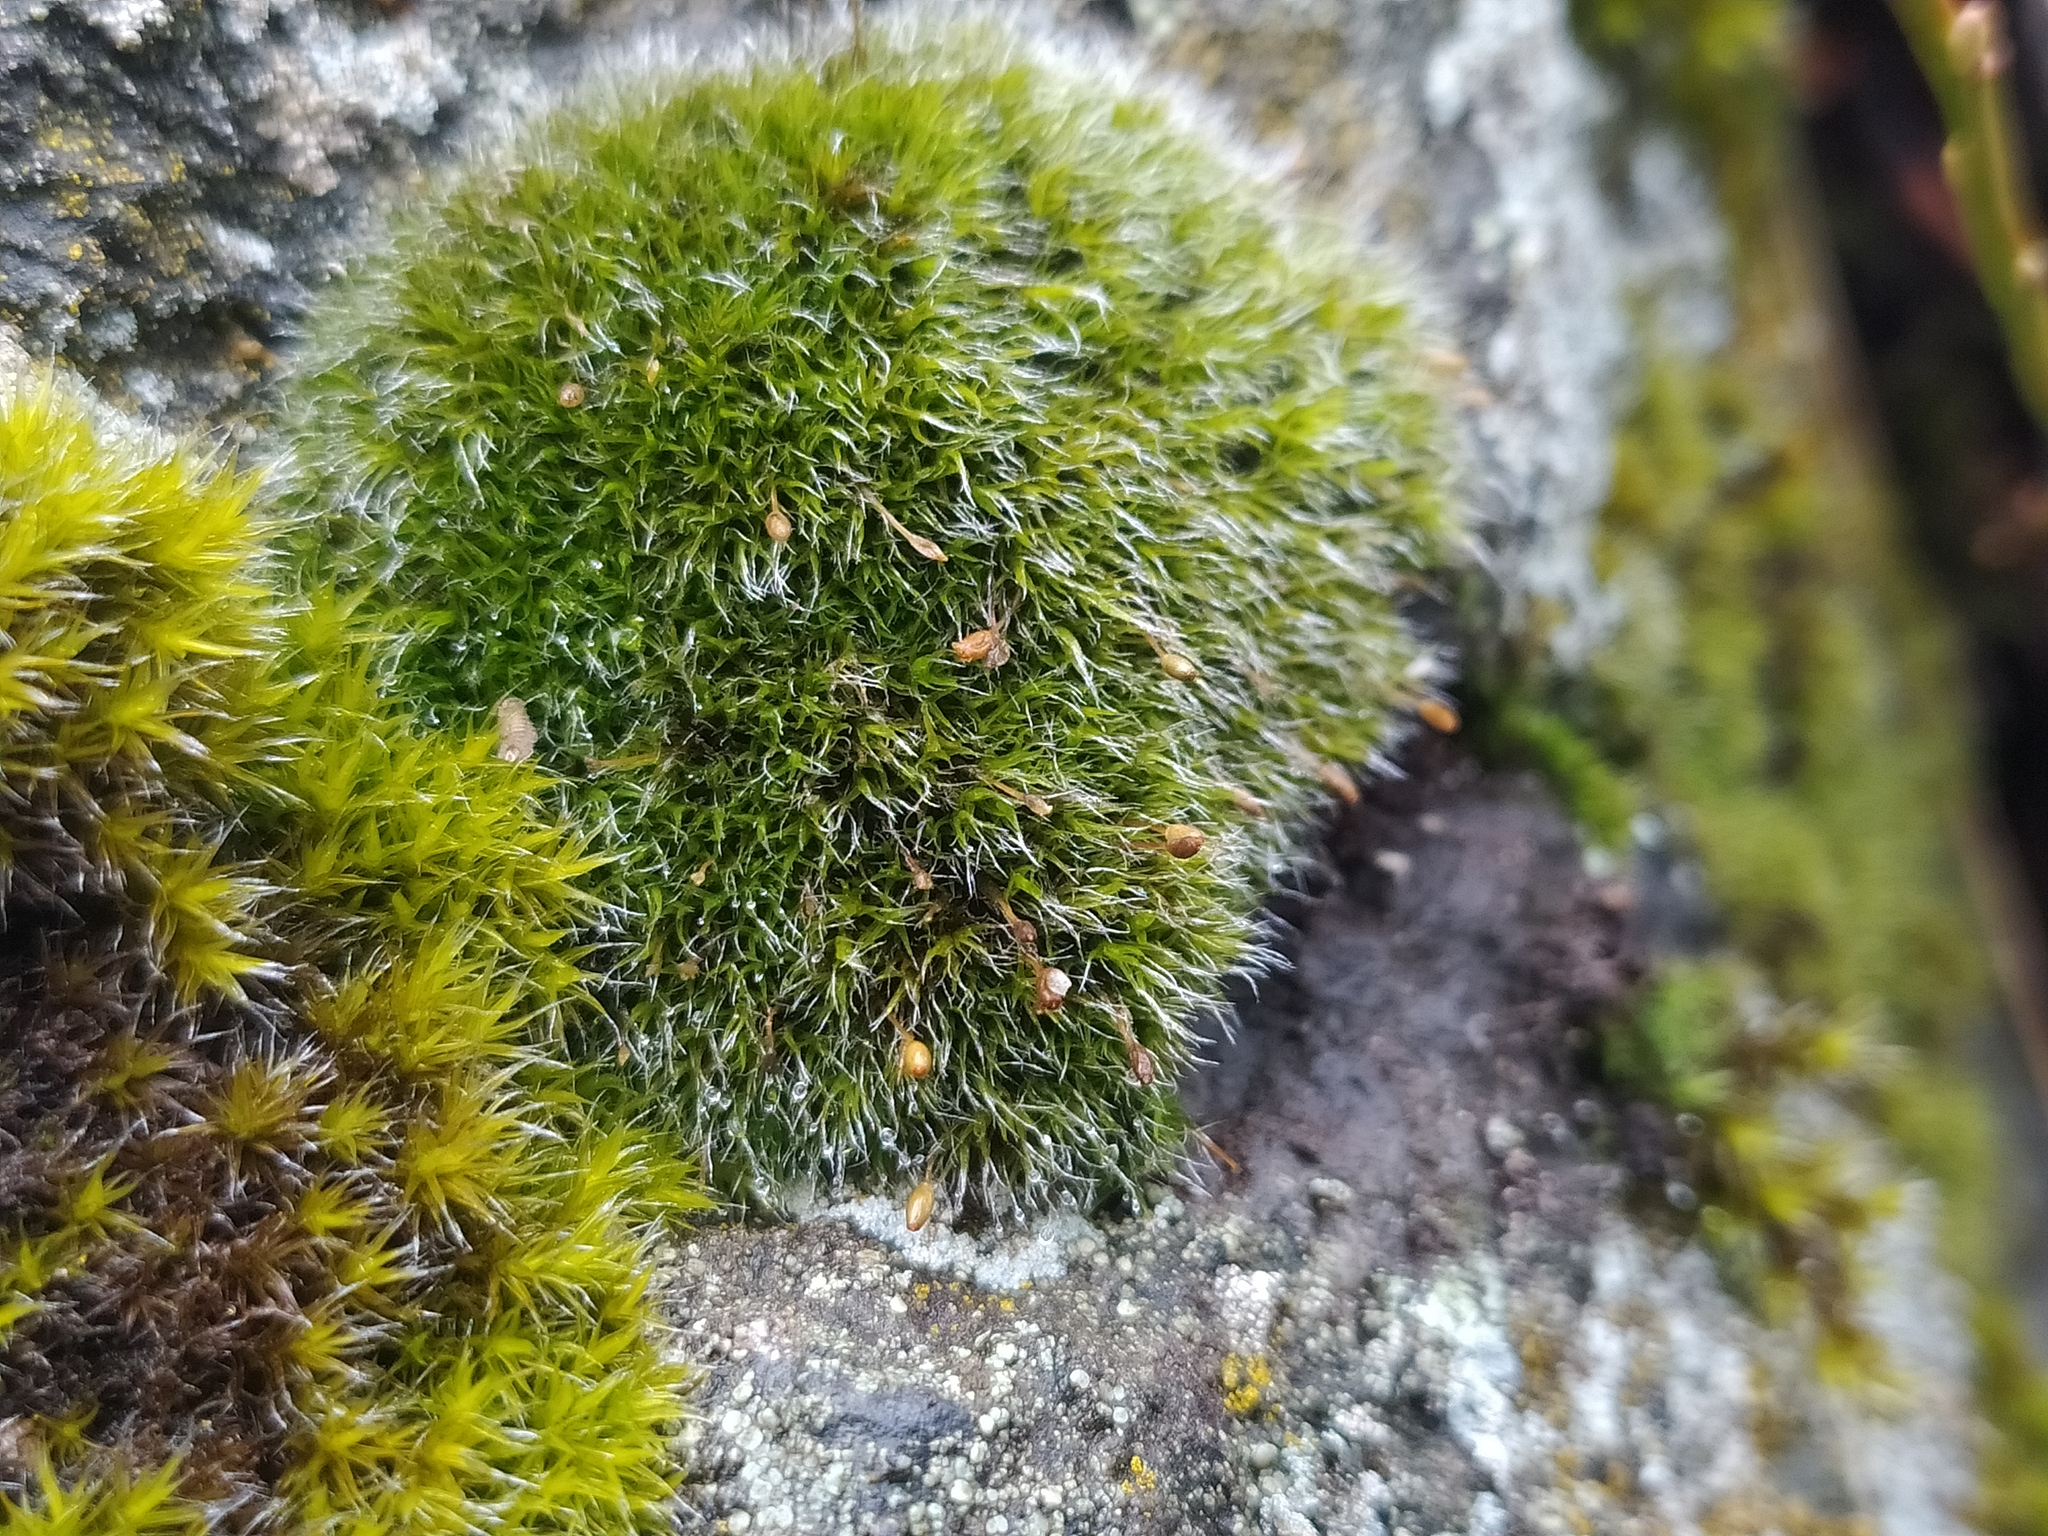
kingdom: Plantae
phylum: Bryophyta
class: Bryopsida
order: Grimmiales
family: Grimmiaceae
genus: Grimmia
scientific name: Grimmia longirostris
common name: Long-beaked grimmia
